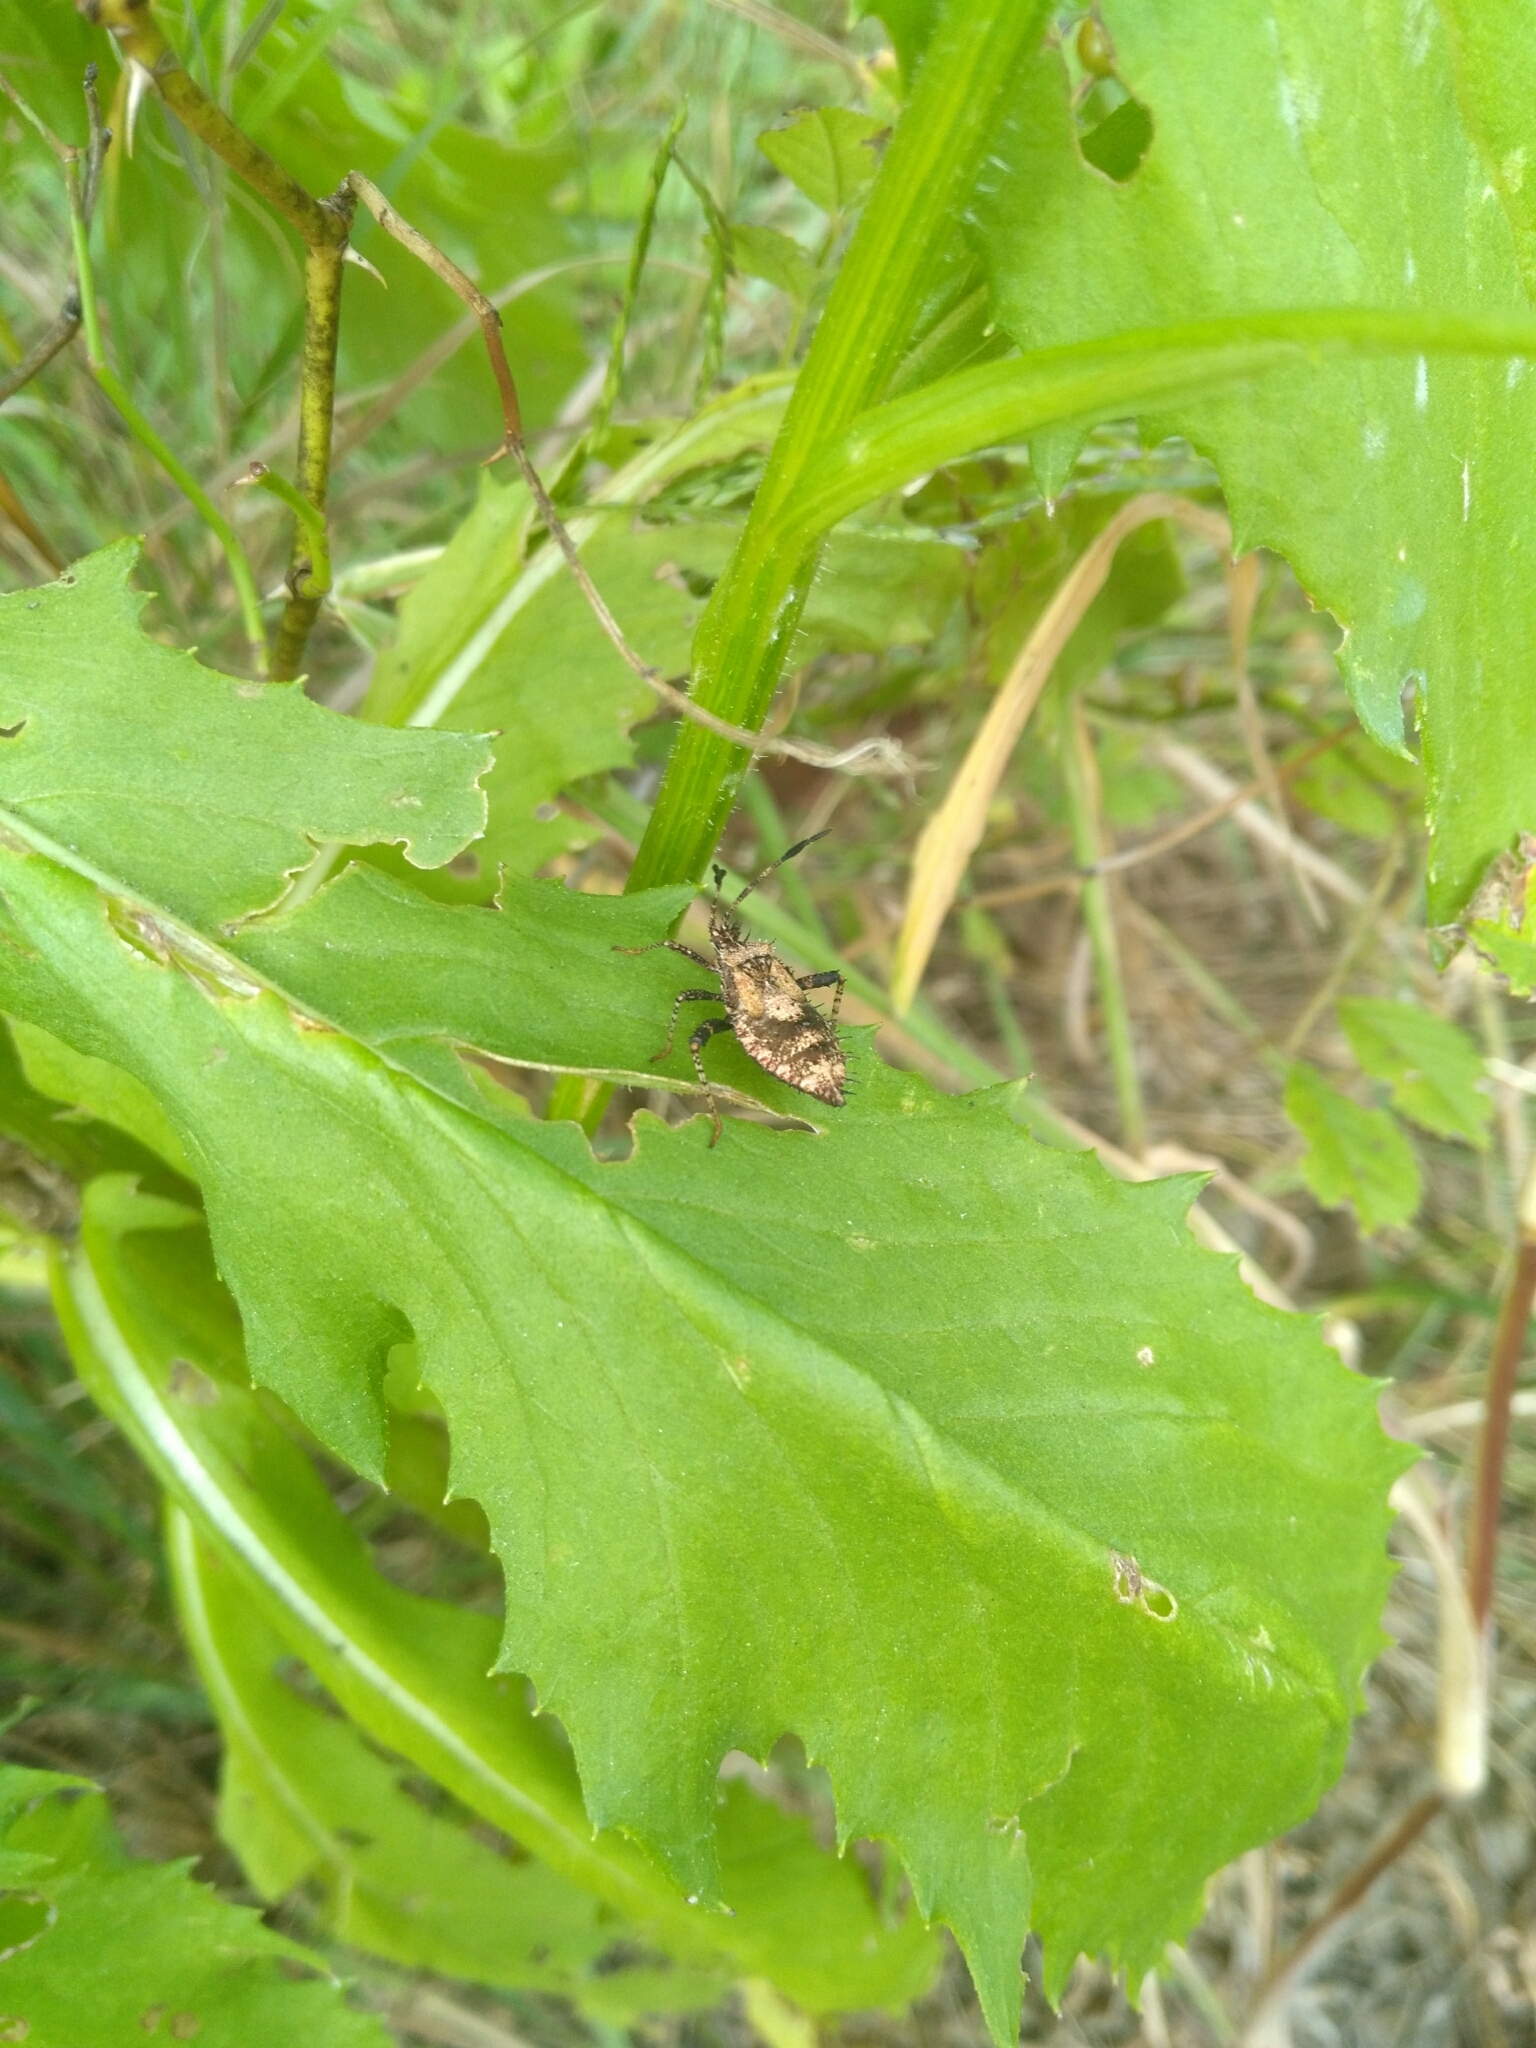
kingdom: Animalia
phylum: Arthropoda
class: Insecta
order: Hemiptera
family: Coreidae
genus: Euthochtha
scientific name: Euthochtha galeator
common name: Helmeted squash bug
